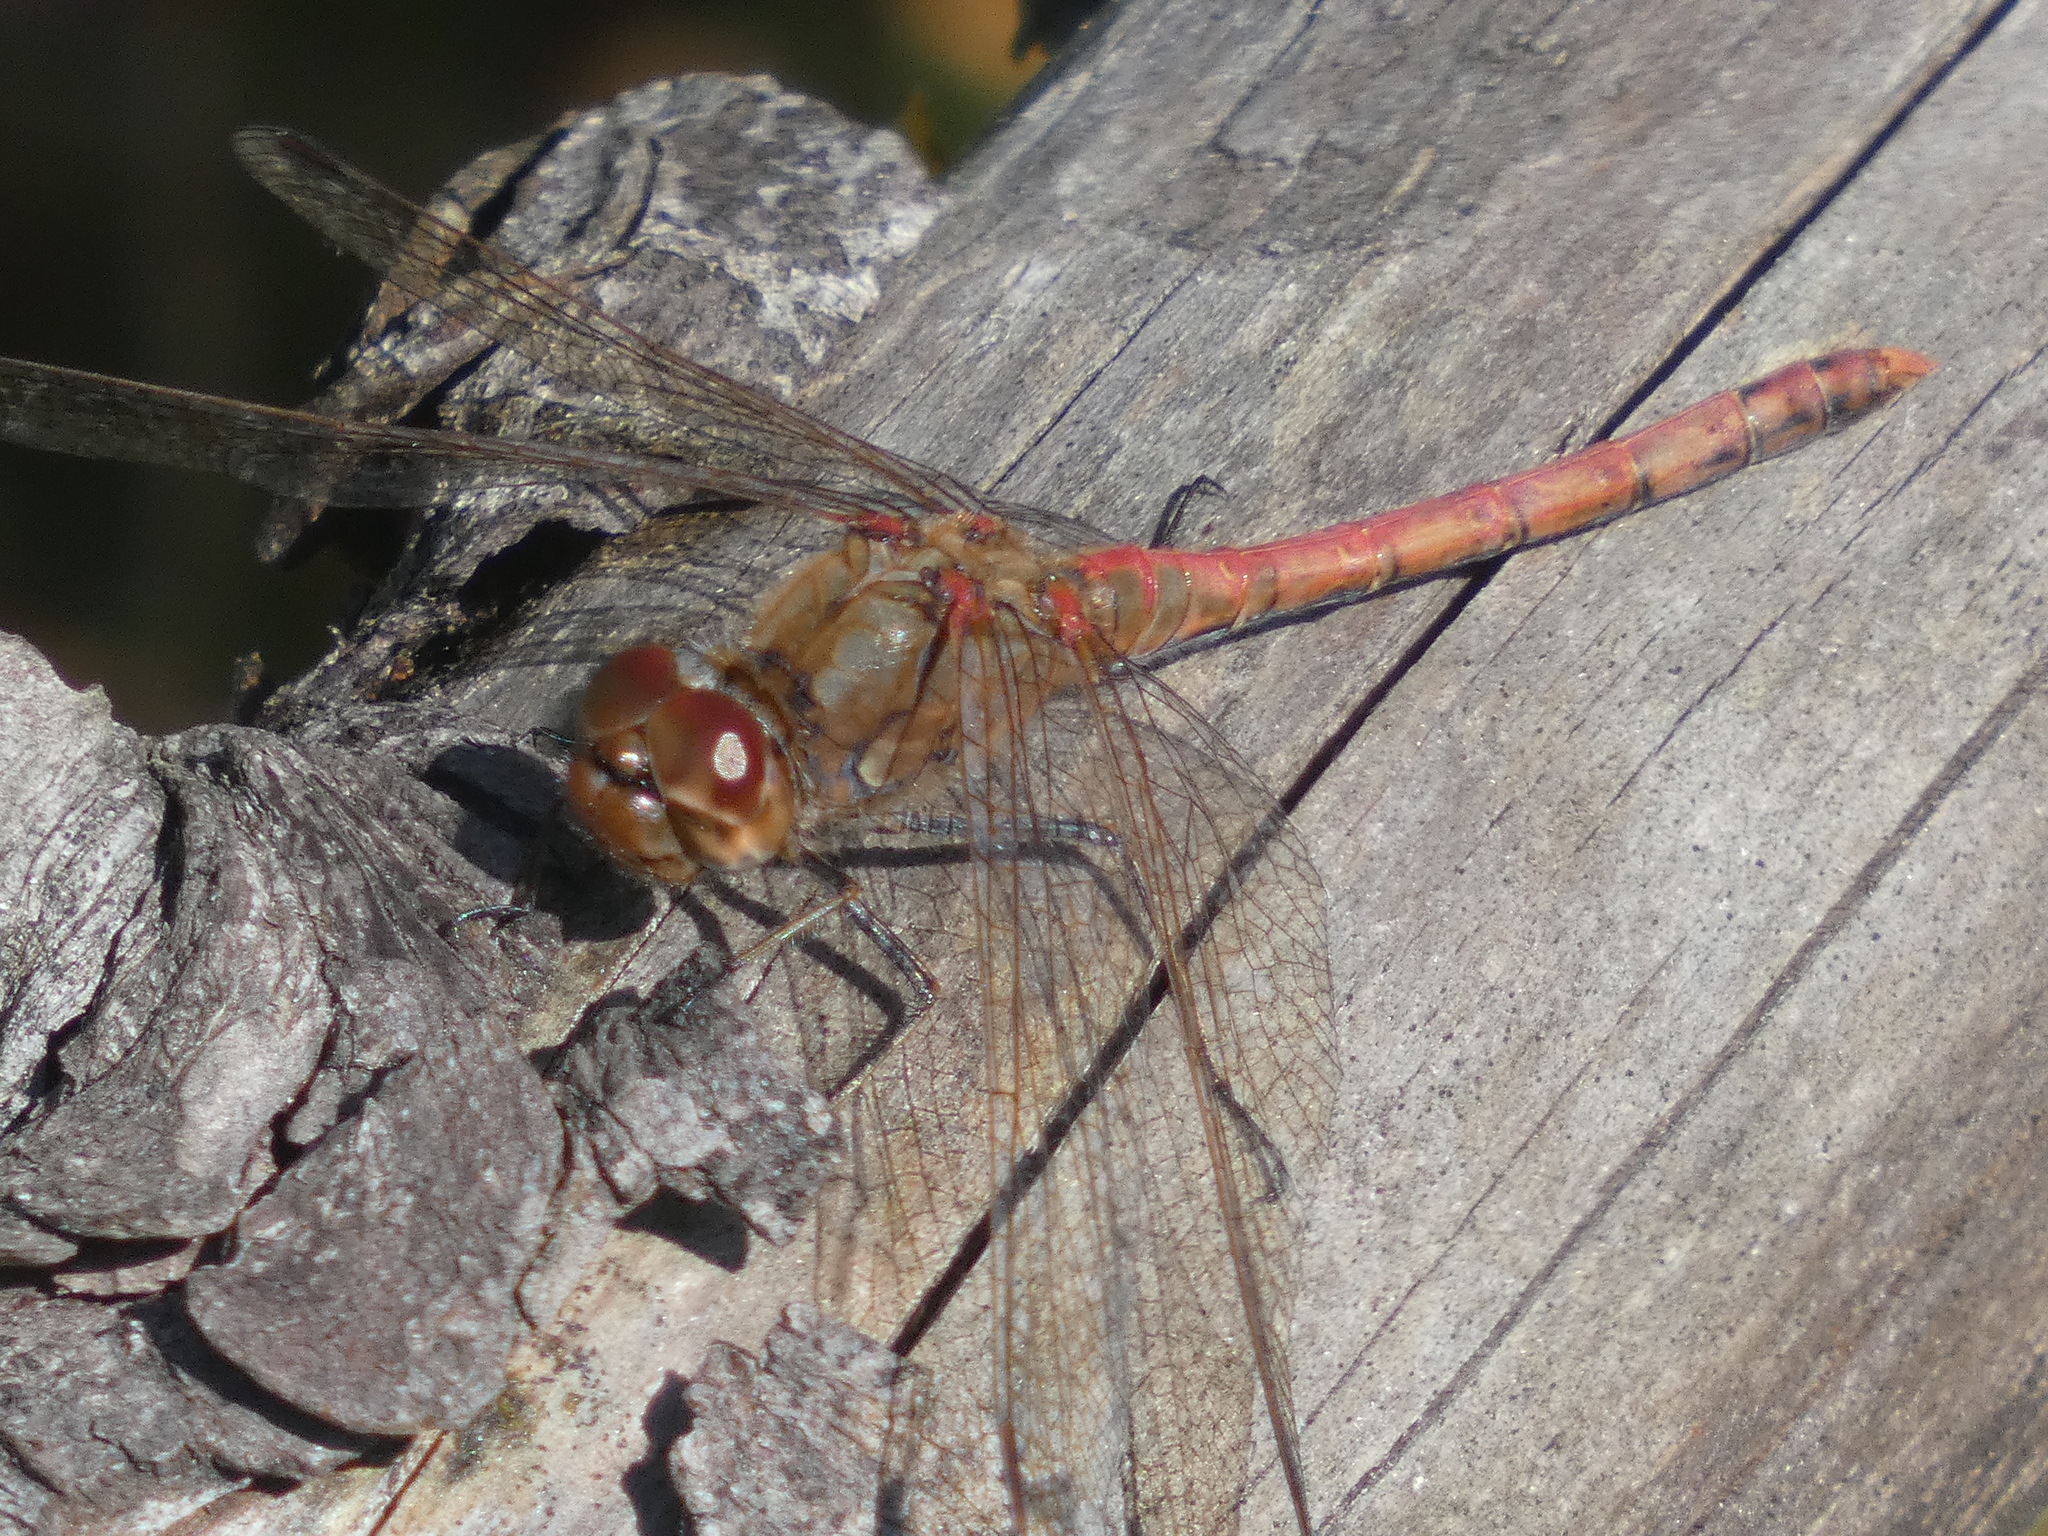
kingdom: Animalia
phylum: Arthropoda
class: Insecta
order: Odonata
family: Libellulidae
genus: Sympetrum
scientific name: Sympetrum striolatum
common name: Common darter
